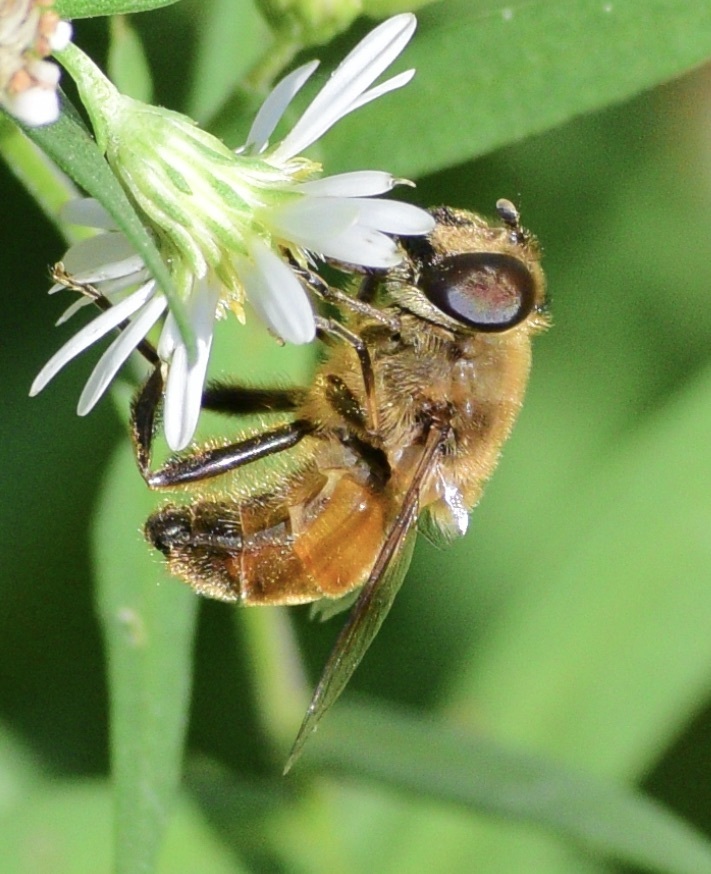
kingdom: Animalia
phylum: Arthropoda
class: Insecta
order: Diptera
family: Syrphidae
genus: Eristalis
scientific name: Eristalis tenax
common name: Drone fly
